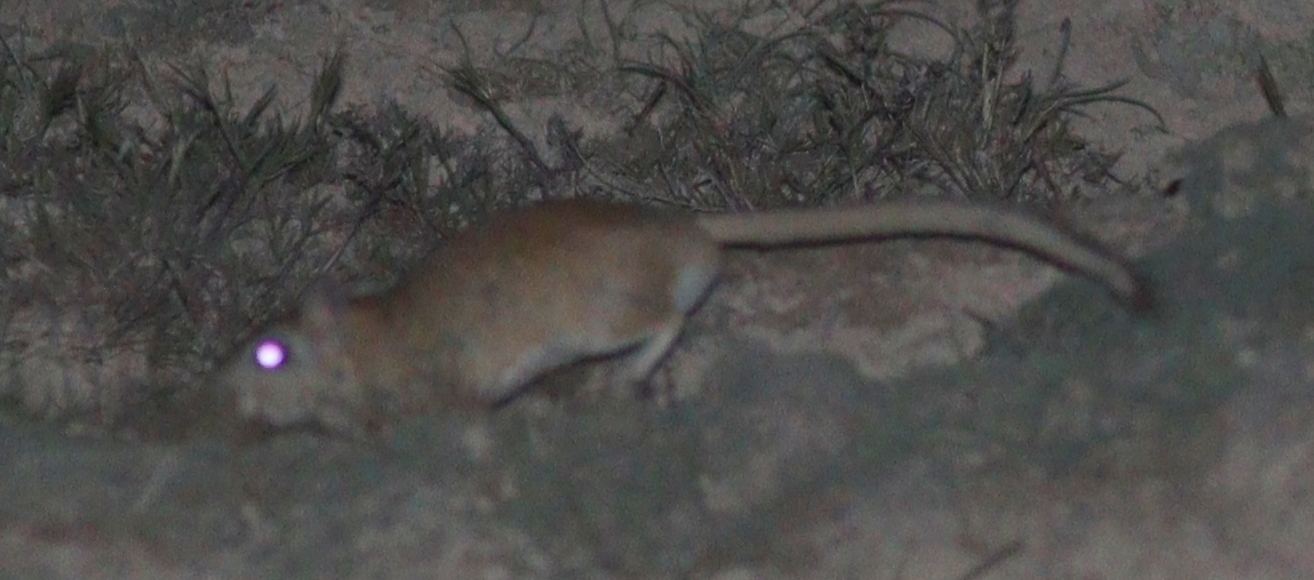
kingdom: Animalia
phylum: Chordata
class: Mammalia
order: Rodentia
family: Muridae
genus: Meriones
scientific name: Meriones tristrami
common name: Tristram's jird
